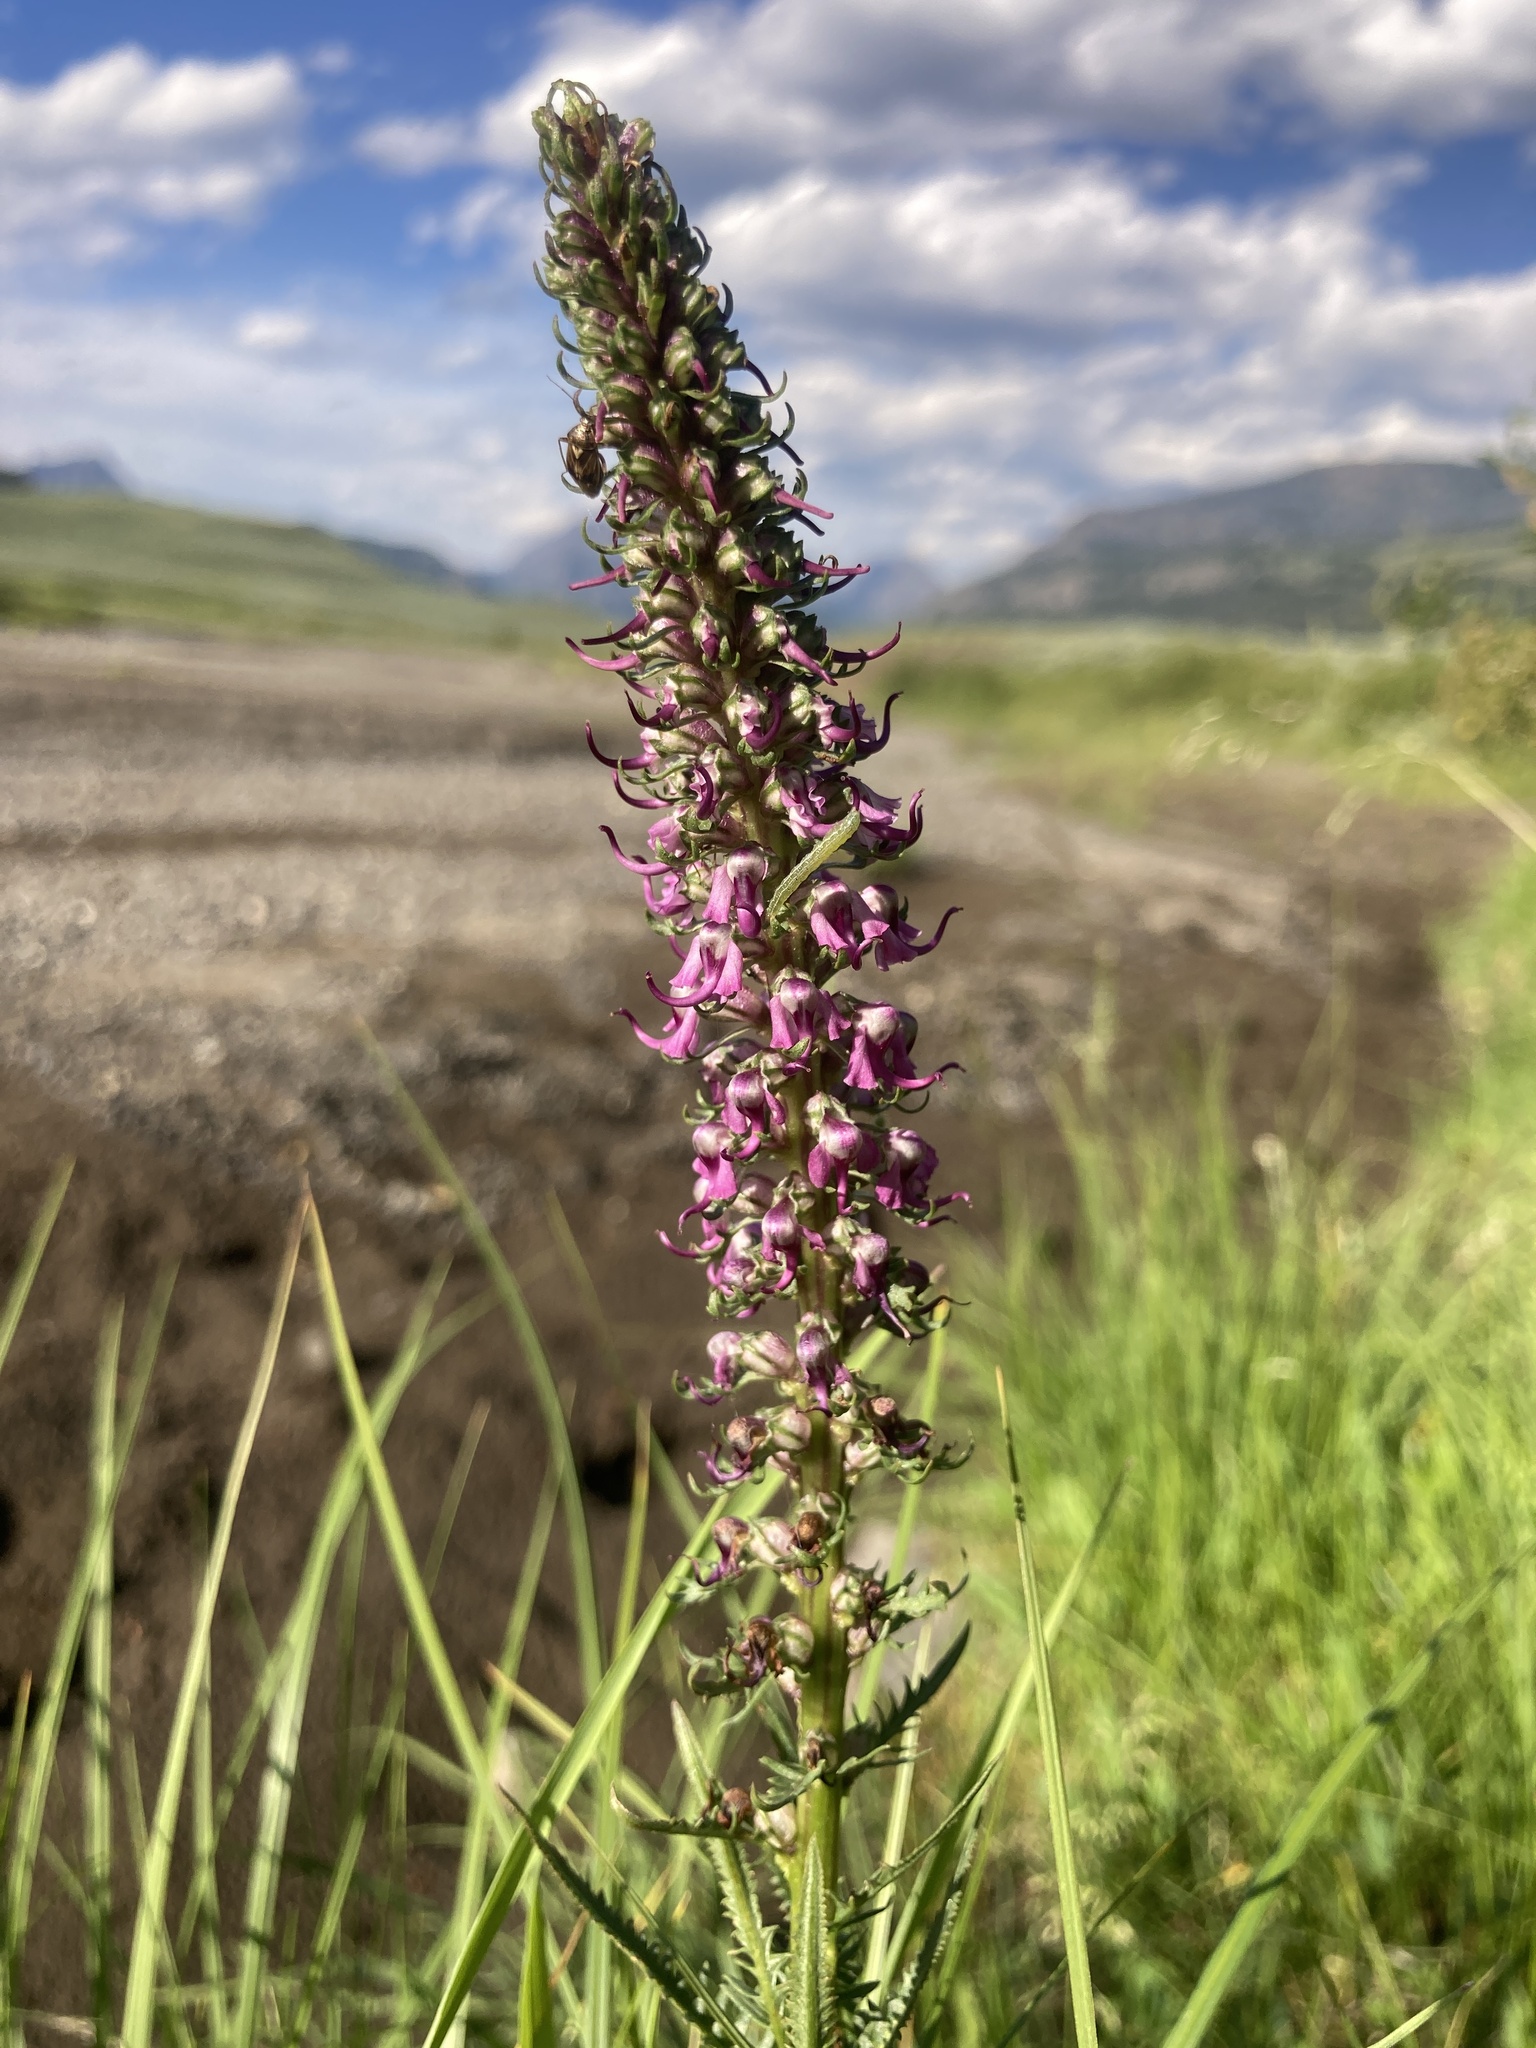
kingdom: Plantae
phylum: Tracheophyta
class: Magnoliopsida
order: Lamiales
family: Orobanchaceae
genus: Pedicularis
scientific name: Pedicularis groenlandica
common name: Elephant's-head
